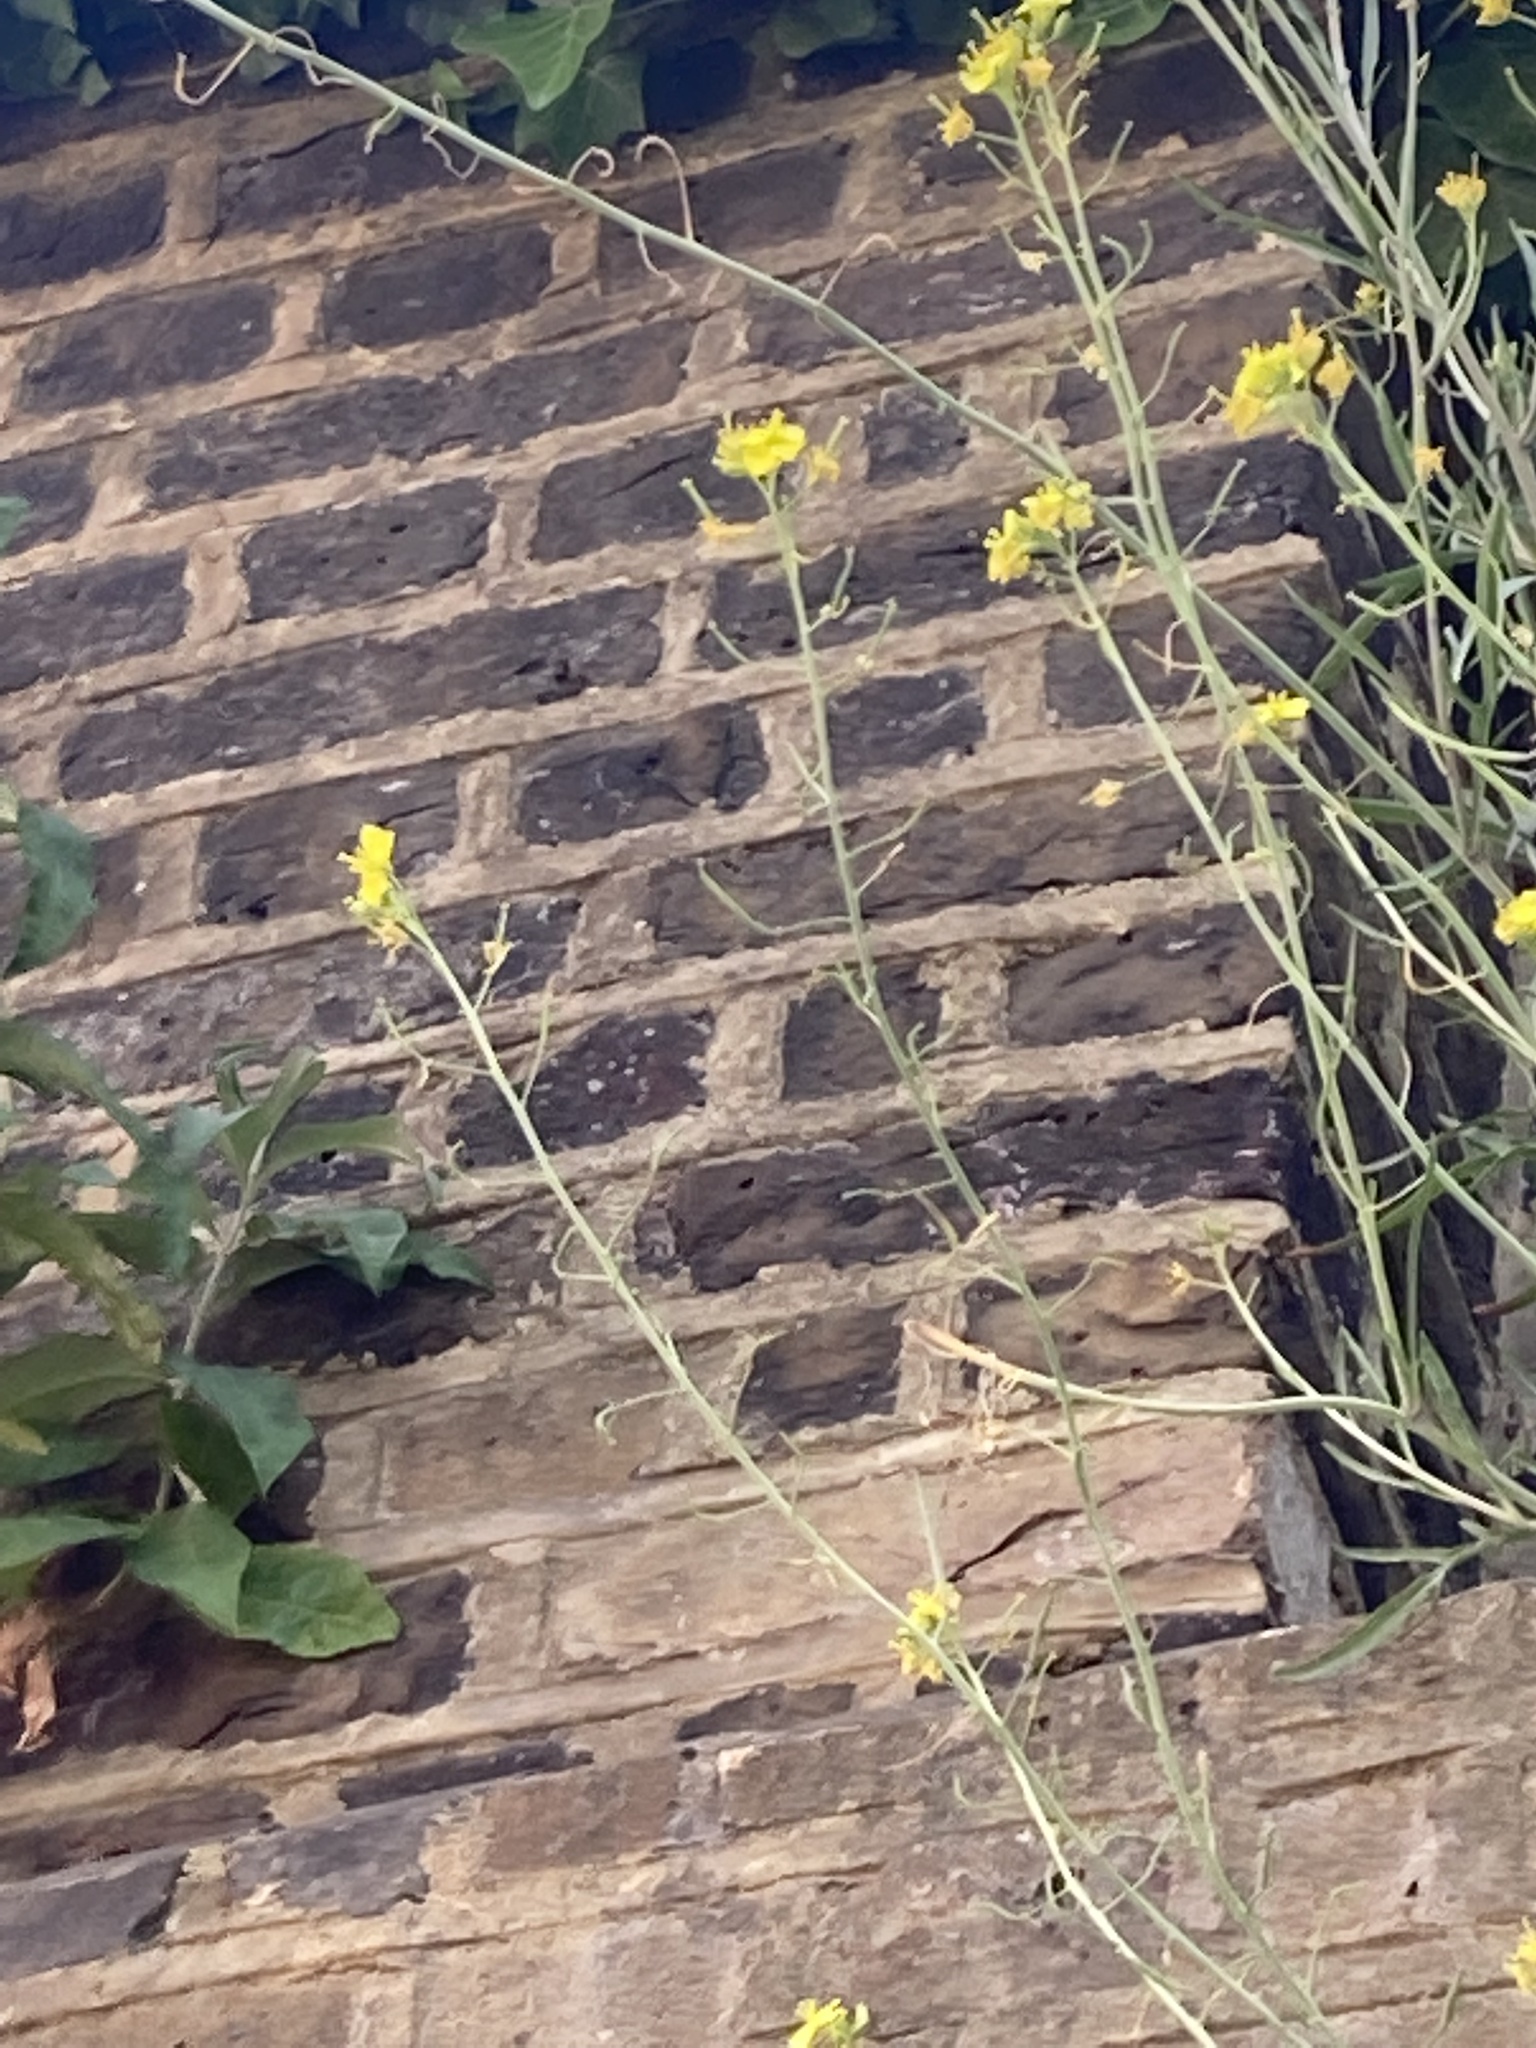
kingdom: Plantae
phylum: Tracheophyta
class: Magnoliopsida
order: Brassicales
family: Brassicaceae
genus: Diplotaxis
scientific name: Diplotaxis tenuifolia
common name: Perennial wall-rocket
